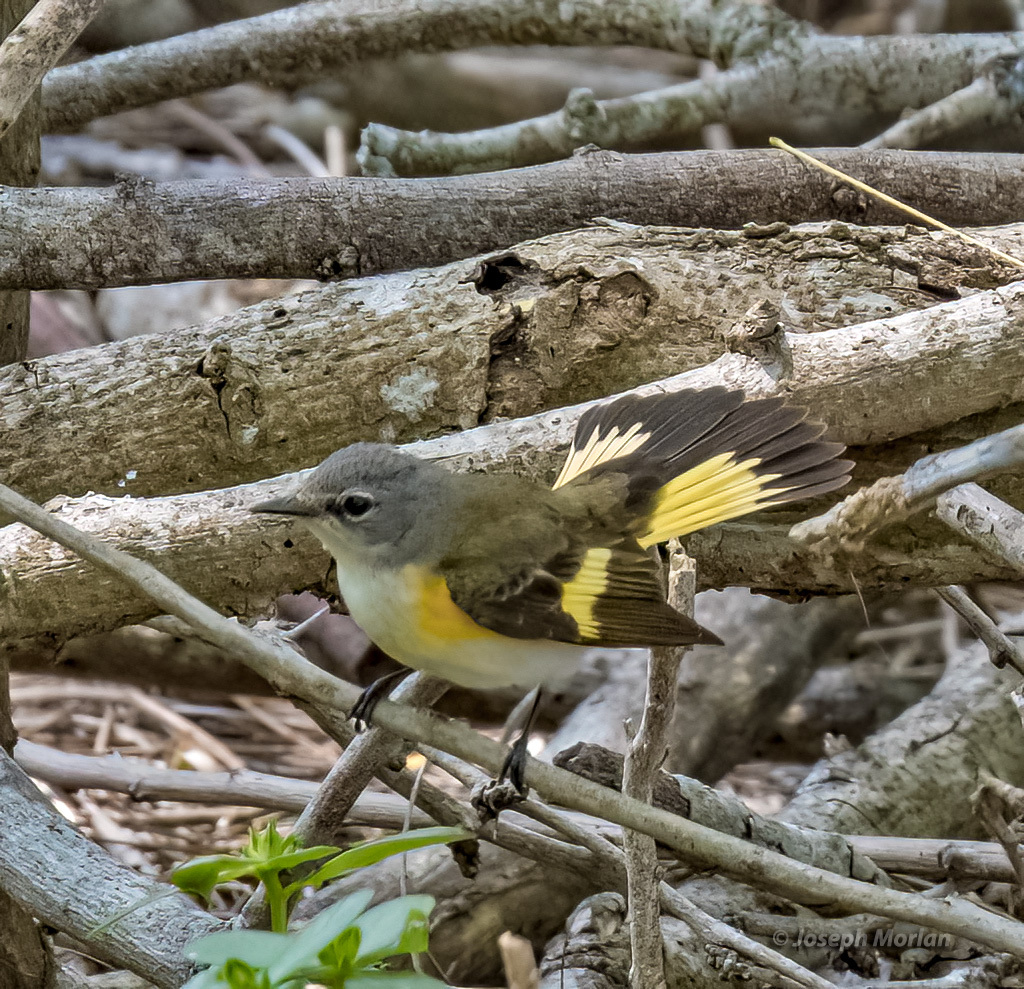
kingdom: Animalia
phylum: Chordata
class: Aves
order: Passeriformes
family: Parulidae
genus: Setophaga
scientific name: Setophaga ruticilla
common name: American redstart
